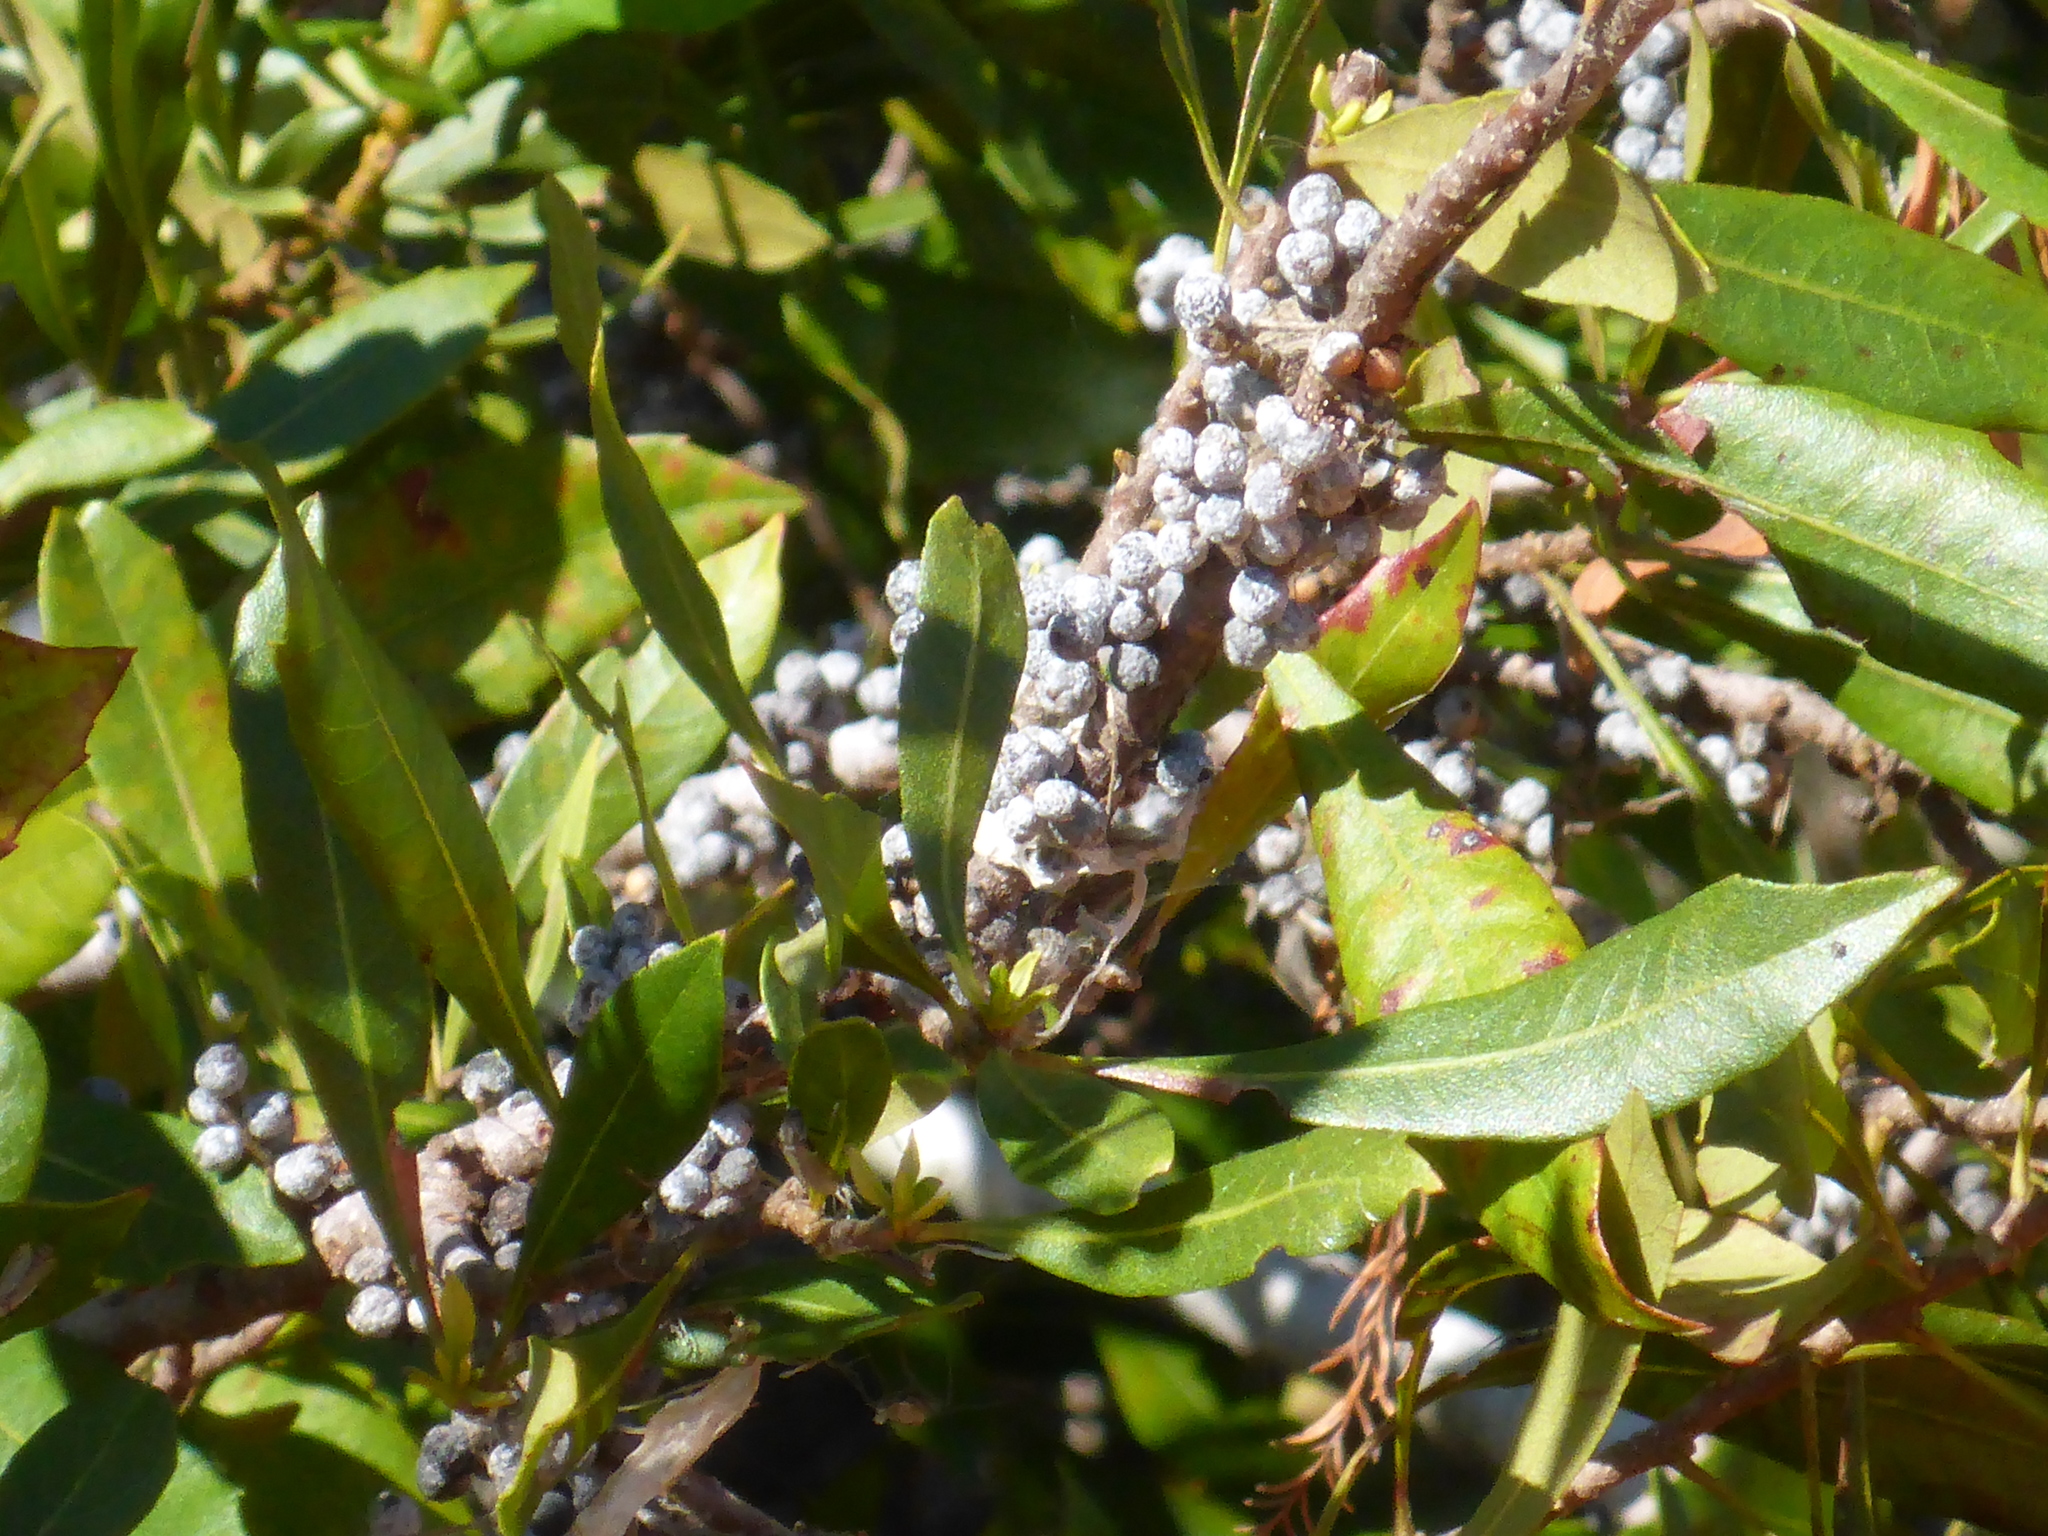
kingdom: Plantae
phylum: Tracheophyta
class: Magnoliopsida
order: Fagales
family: Myricaceae
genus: Morella
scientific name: Morella cerifera
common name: Wax myrtle
